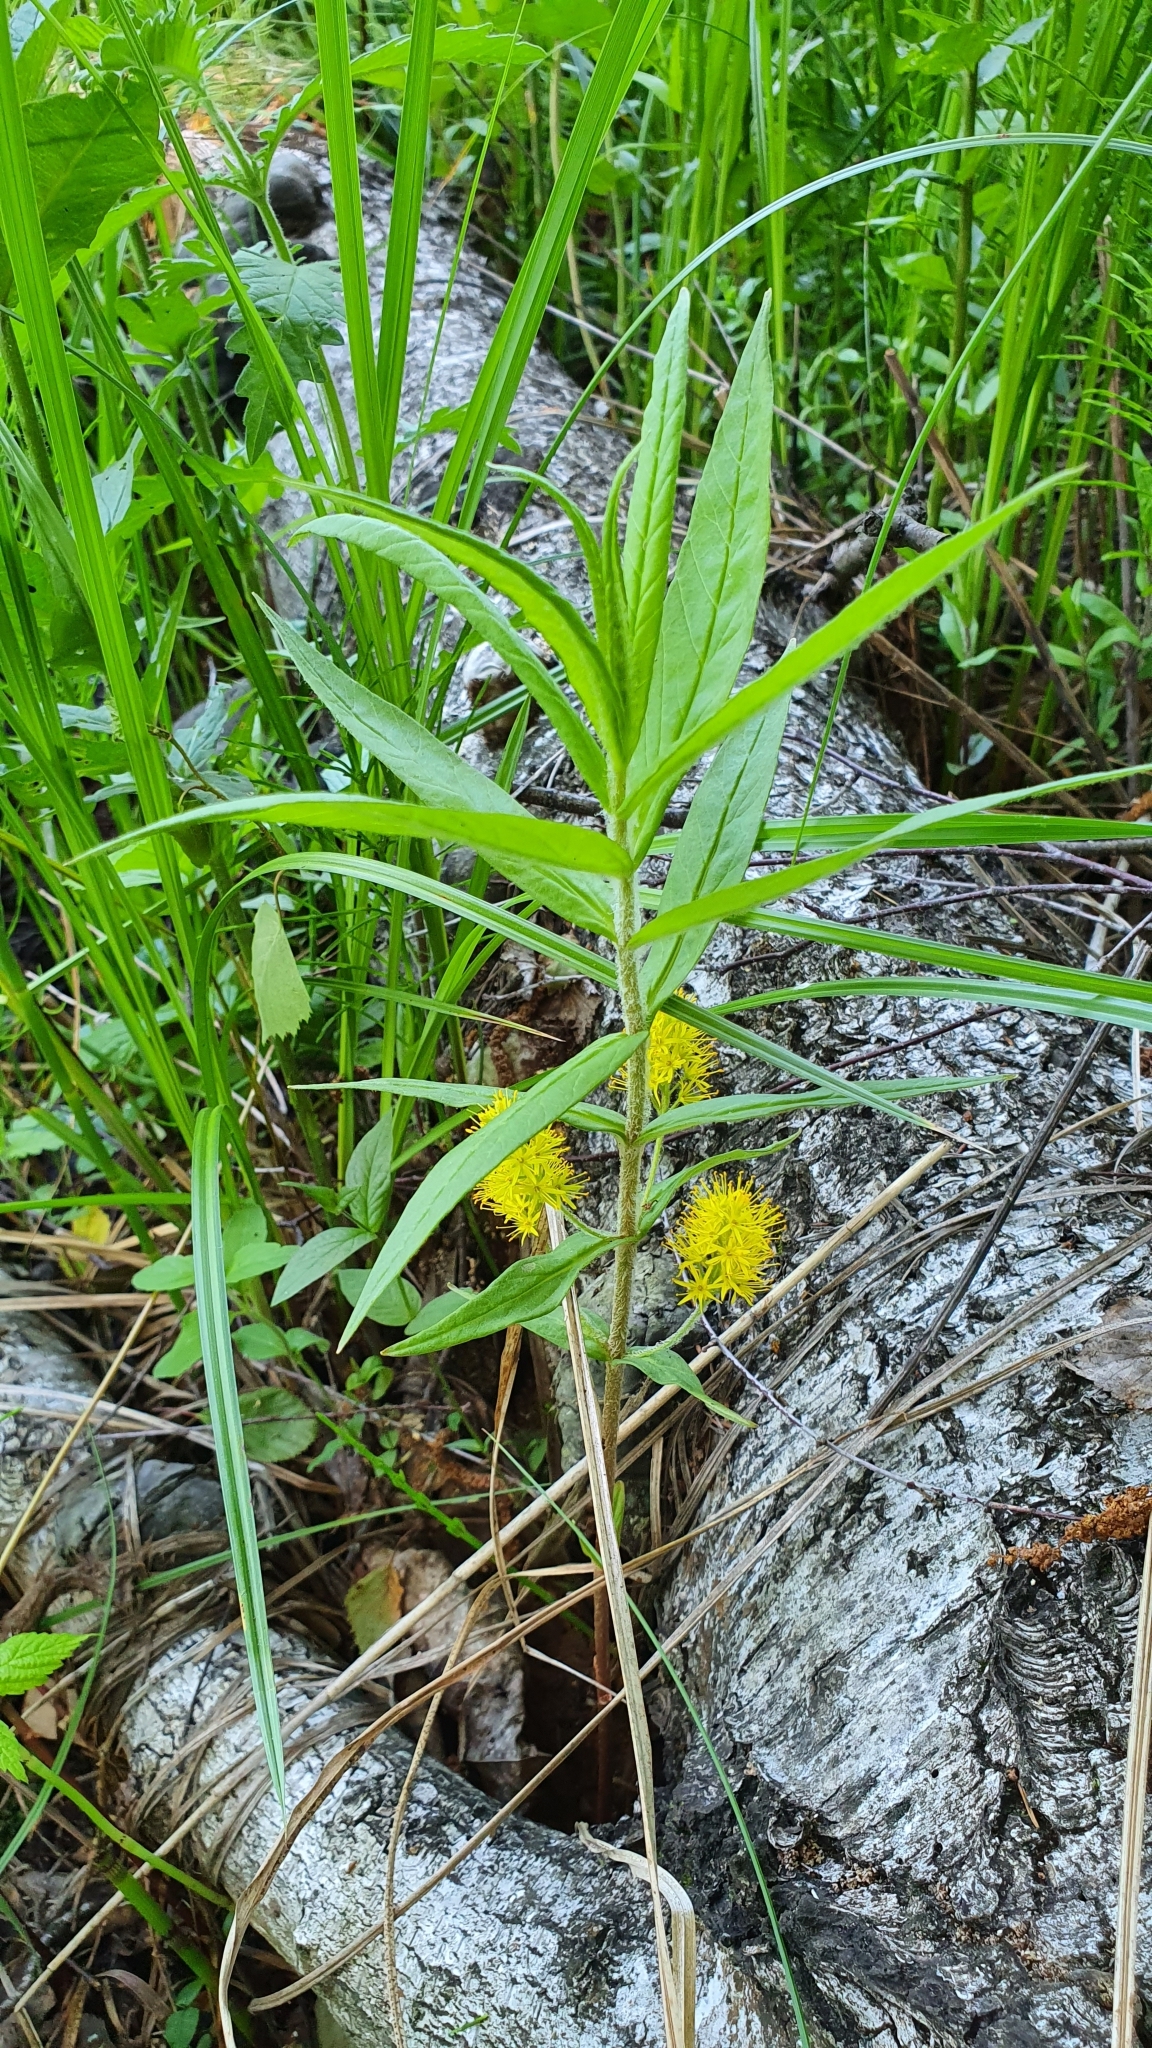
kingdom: Plantae
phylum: Tracheophyta
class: Magnoliopsida
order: Ericales
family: Primulaceae
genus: Lysimachia
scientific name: Lysimachia thyrsiflora
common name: Tufted loosestrife
